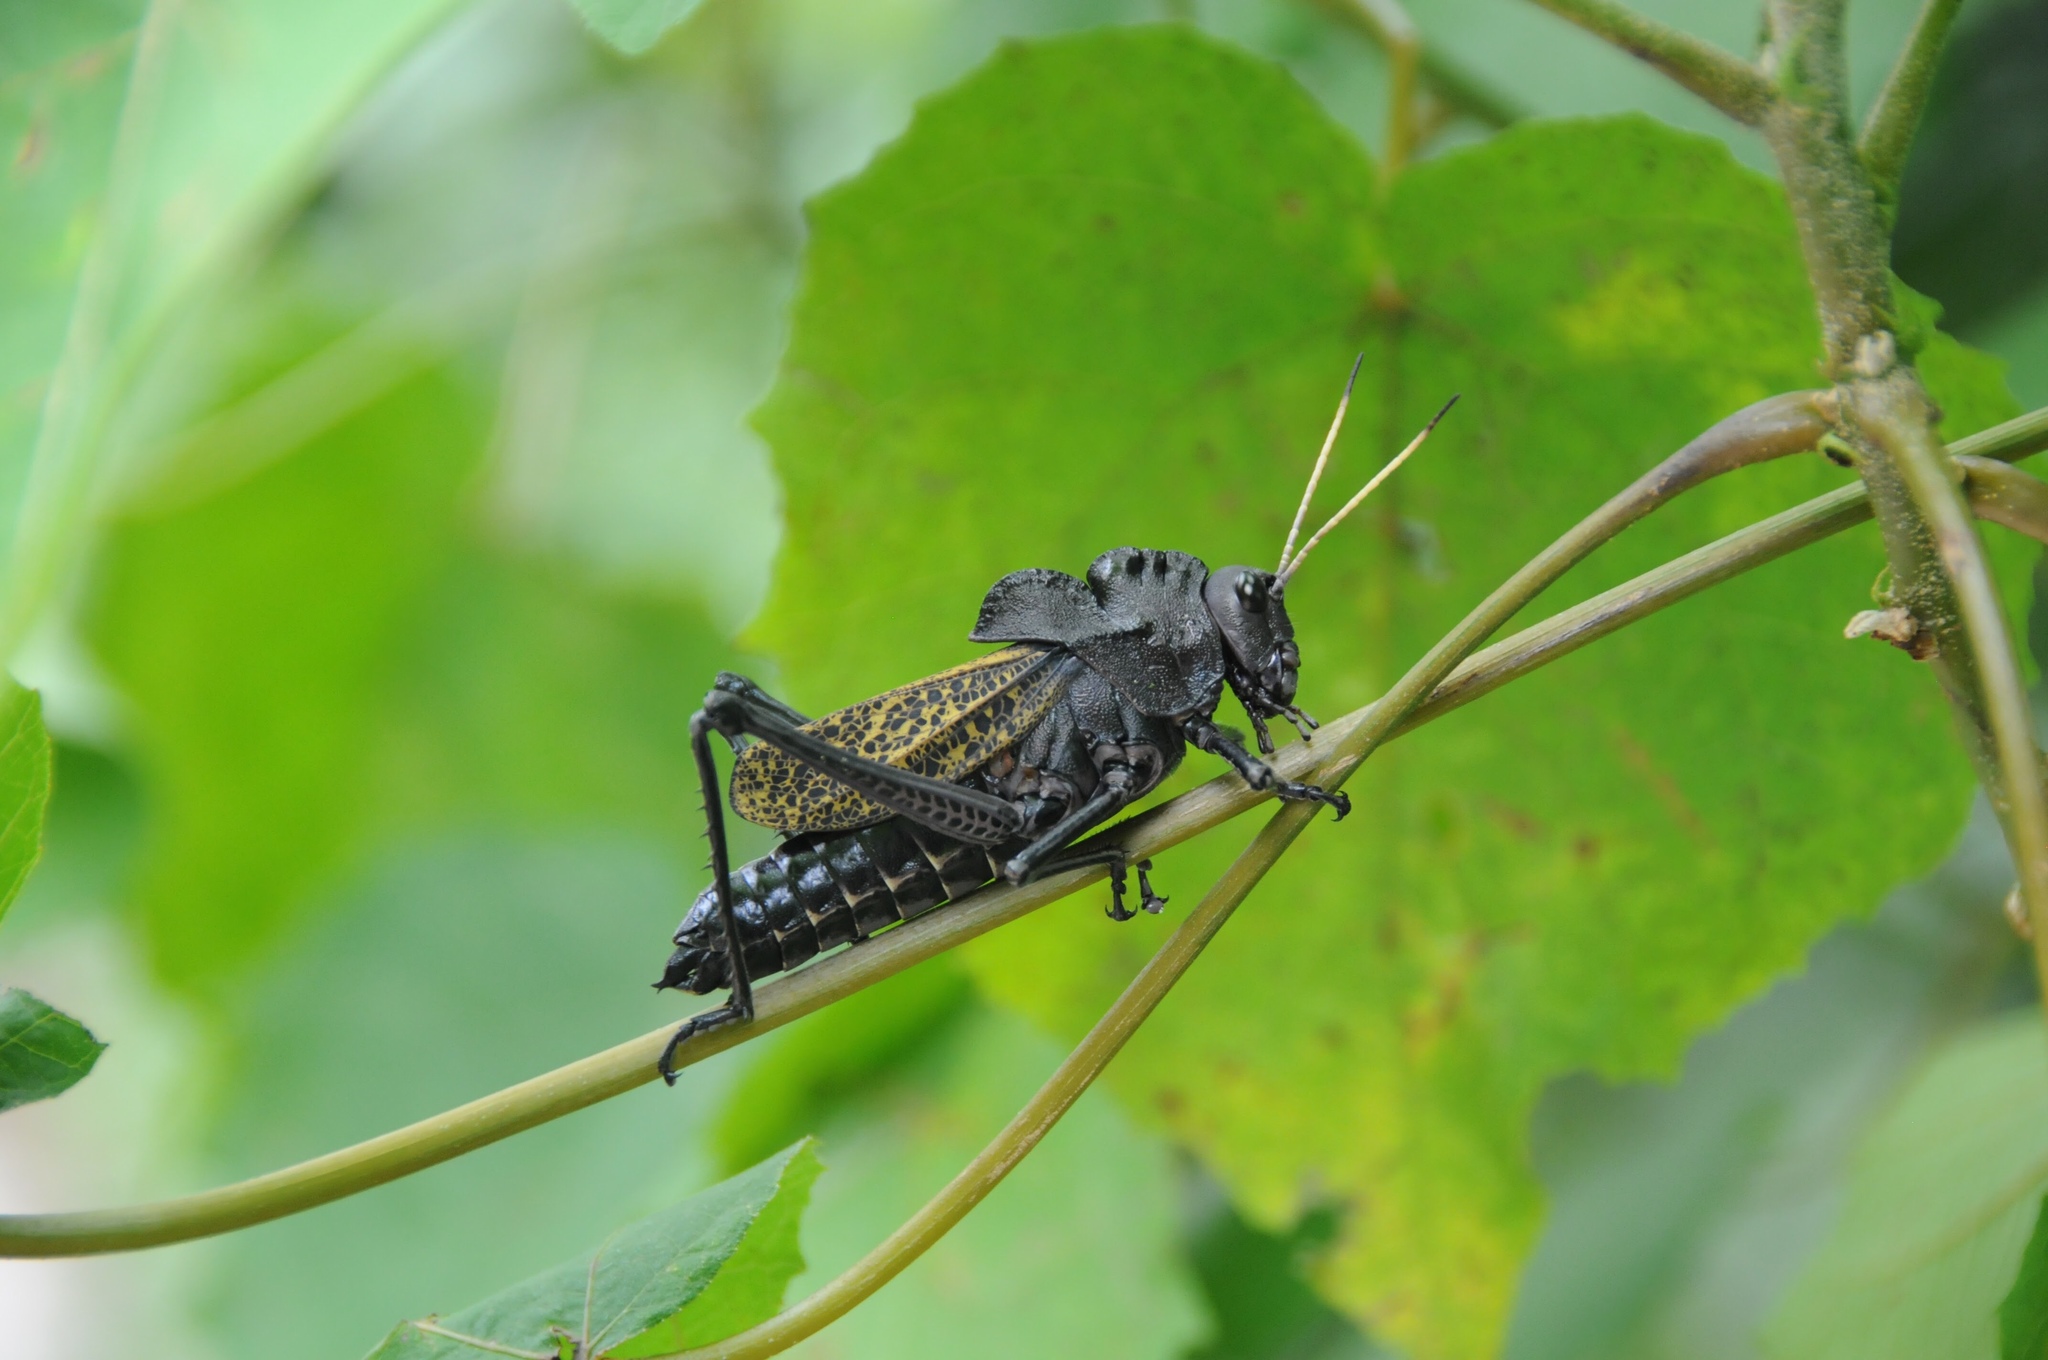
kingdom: Animalia
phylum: Arthropoda
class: Insecta
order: Orthoptera
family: Romaleidae
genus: Taeniopoda
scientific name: Taeniopoda centurio
